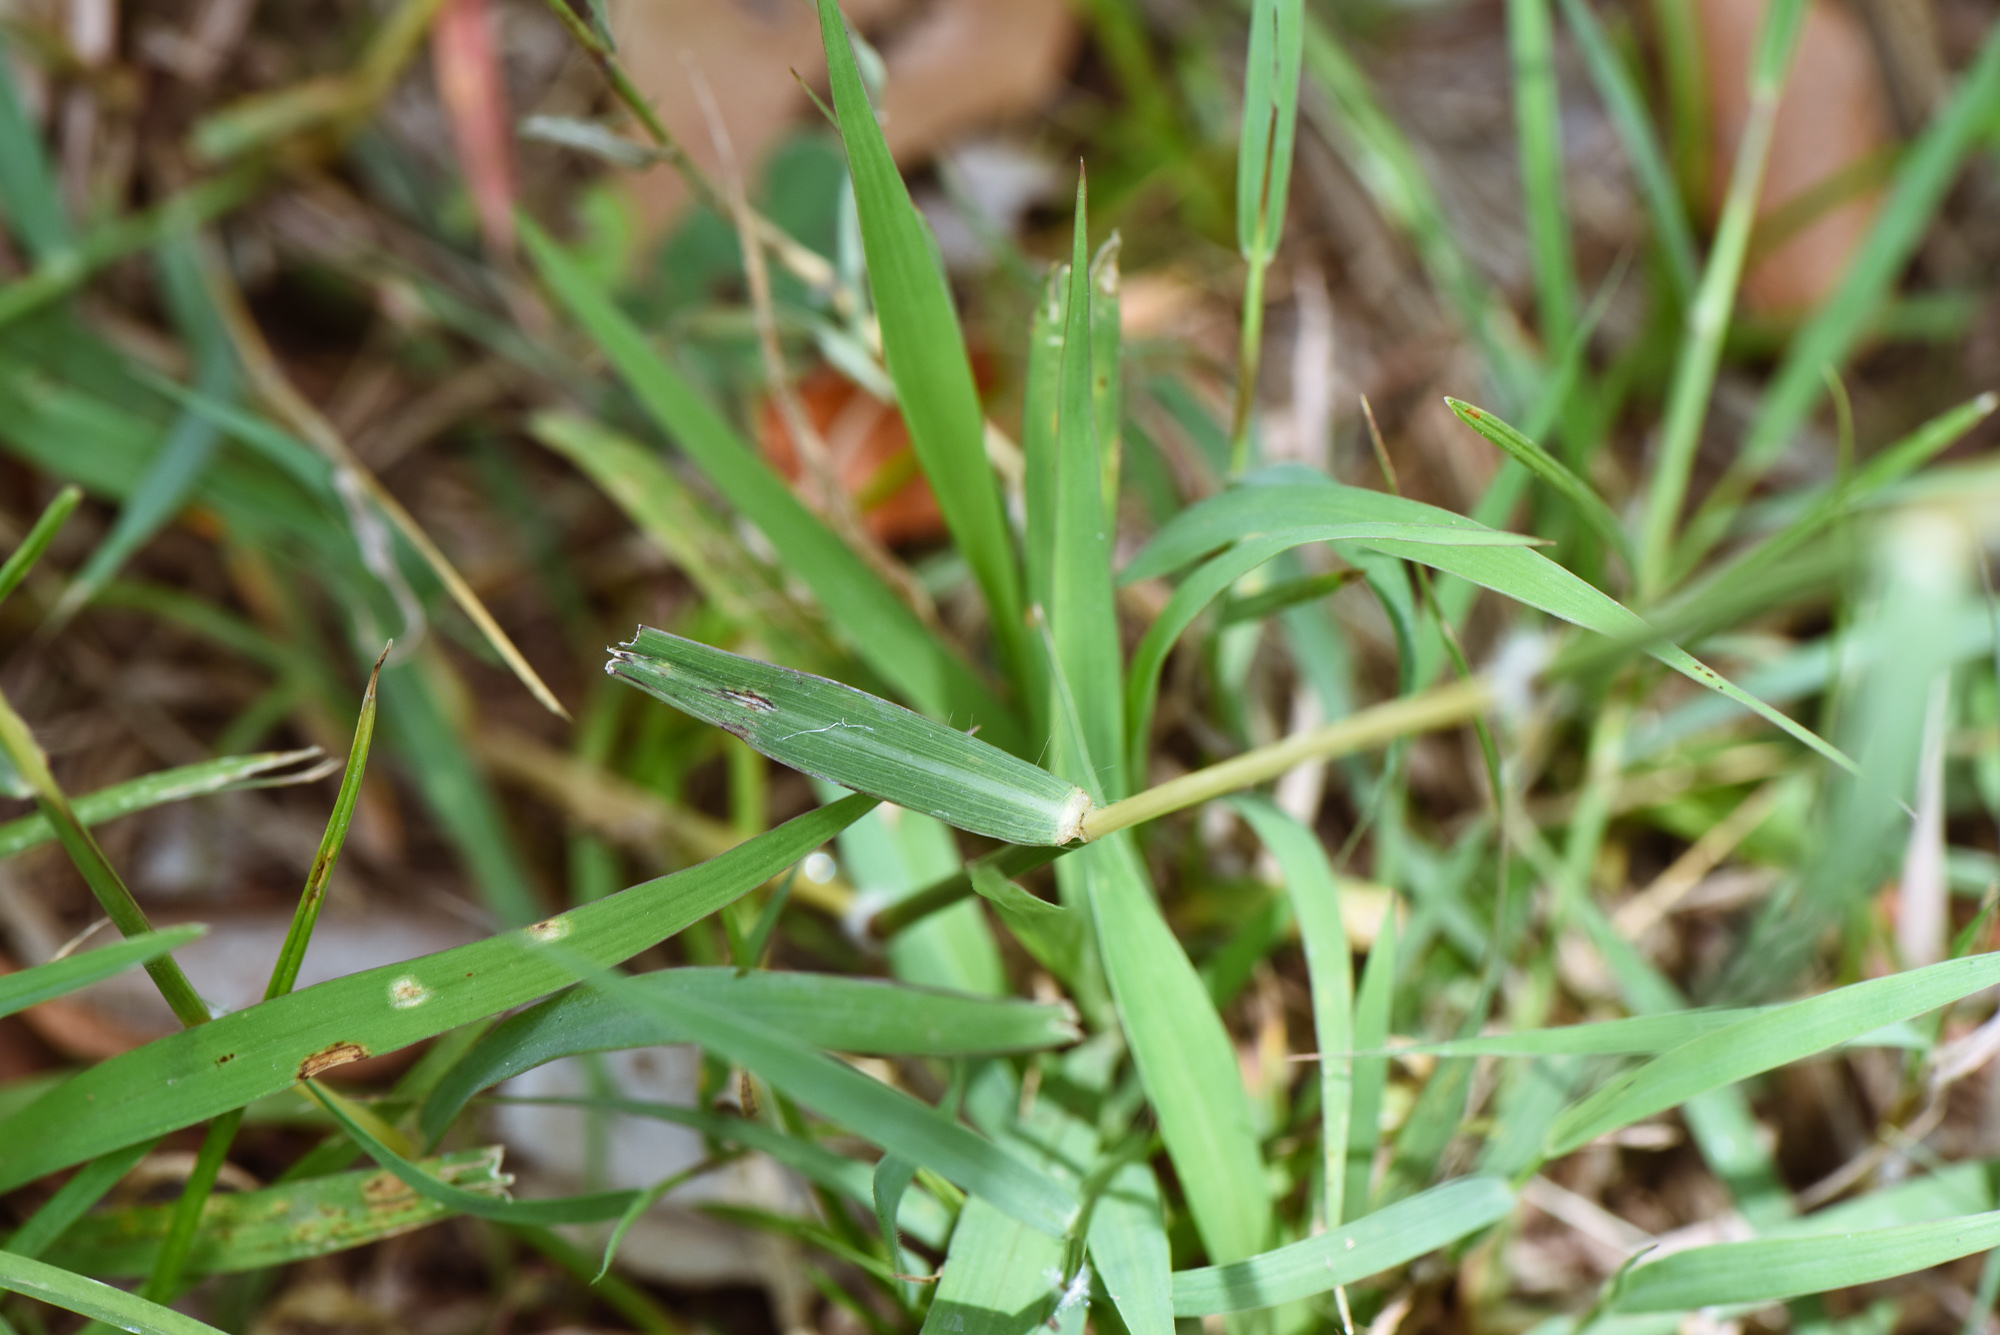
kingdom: Plantae
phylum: Tracheophyta
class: Liliopsida
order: Poales
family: Poaceae
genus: Dichanthium
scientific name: Dichanthium annulatum
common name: Kleberg's bluestem
